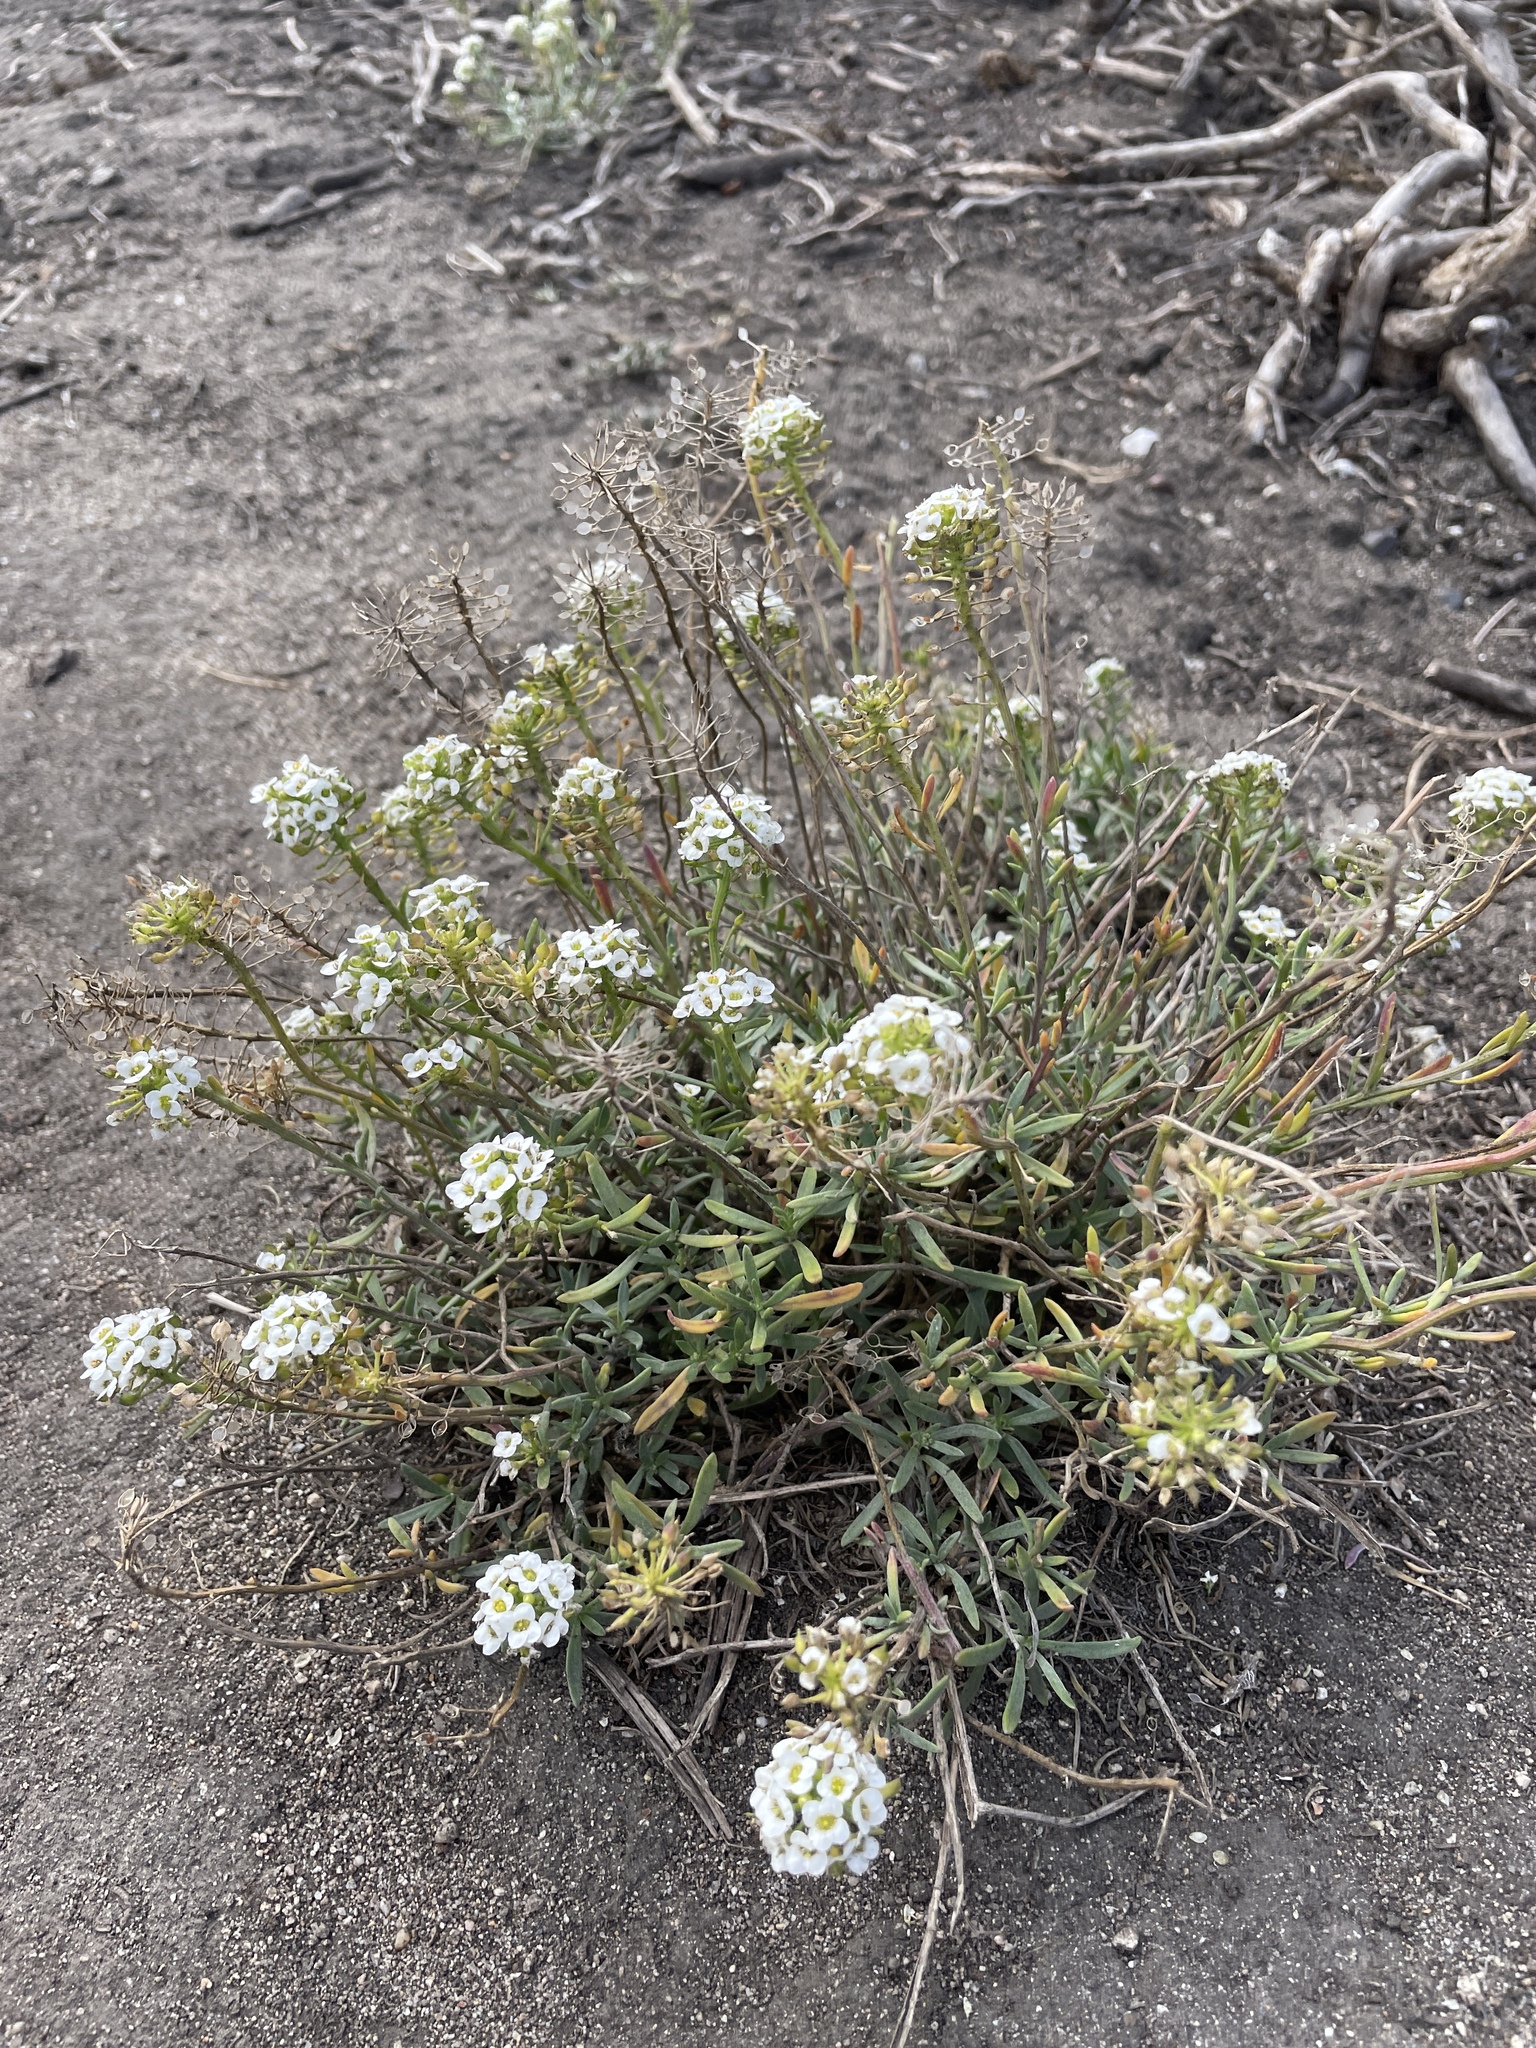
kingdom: Plantae
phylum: Tracheophyta
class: Magnoliopsida
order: Brassicales
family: Brassicaceae
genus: Lobularia
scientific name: Lobularia maritima
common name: Sweet alison
